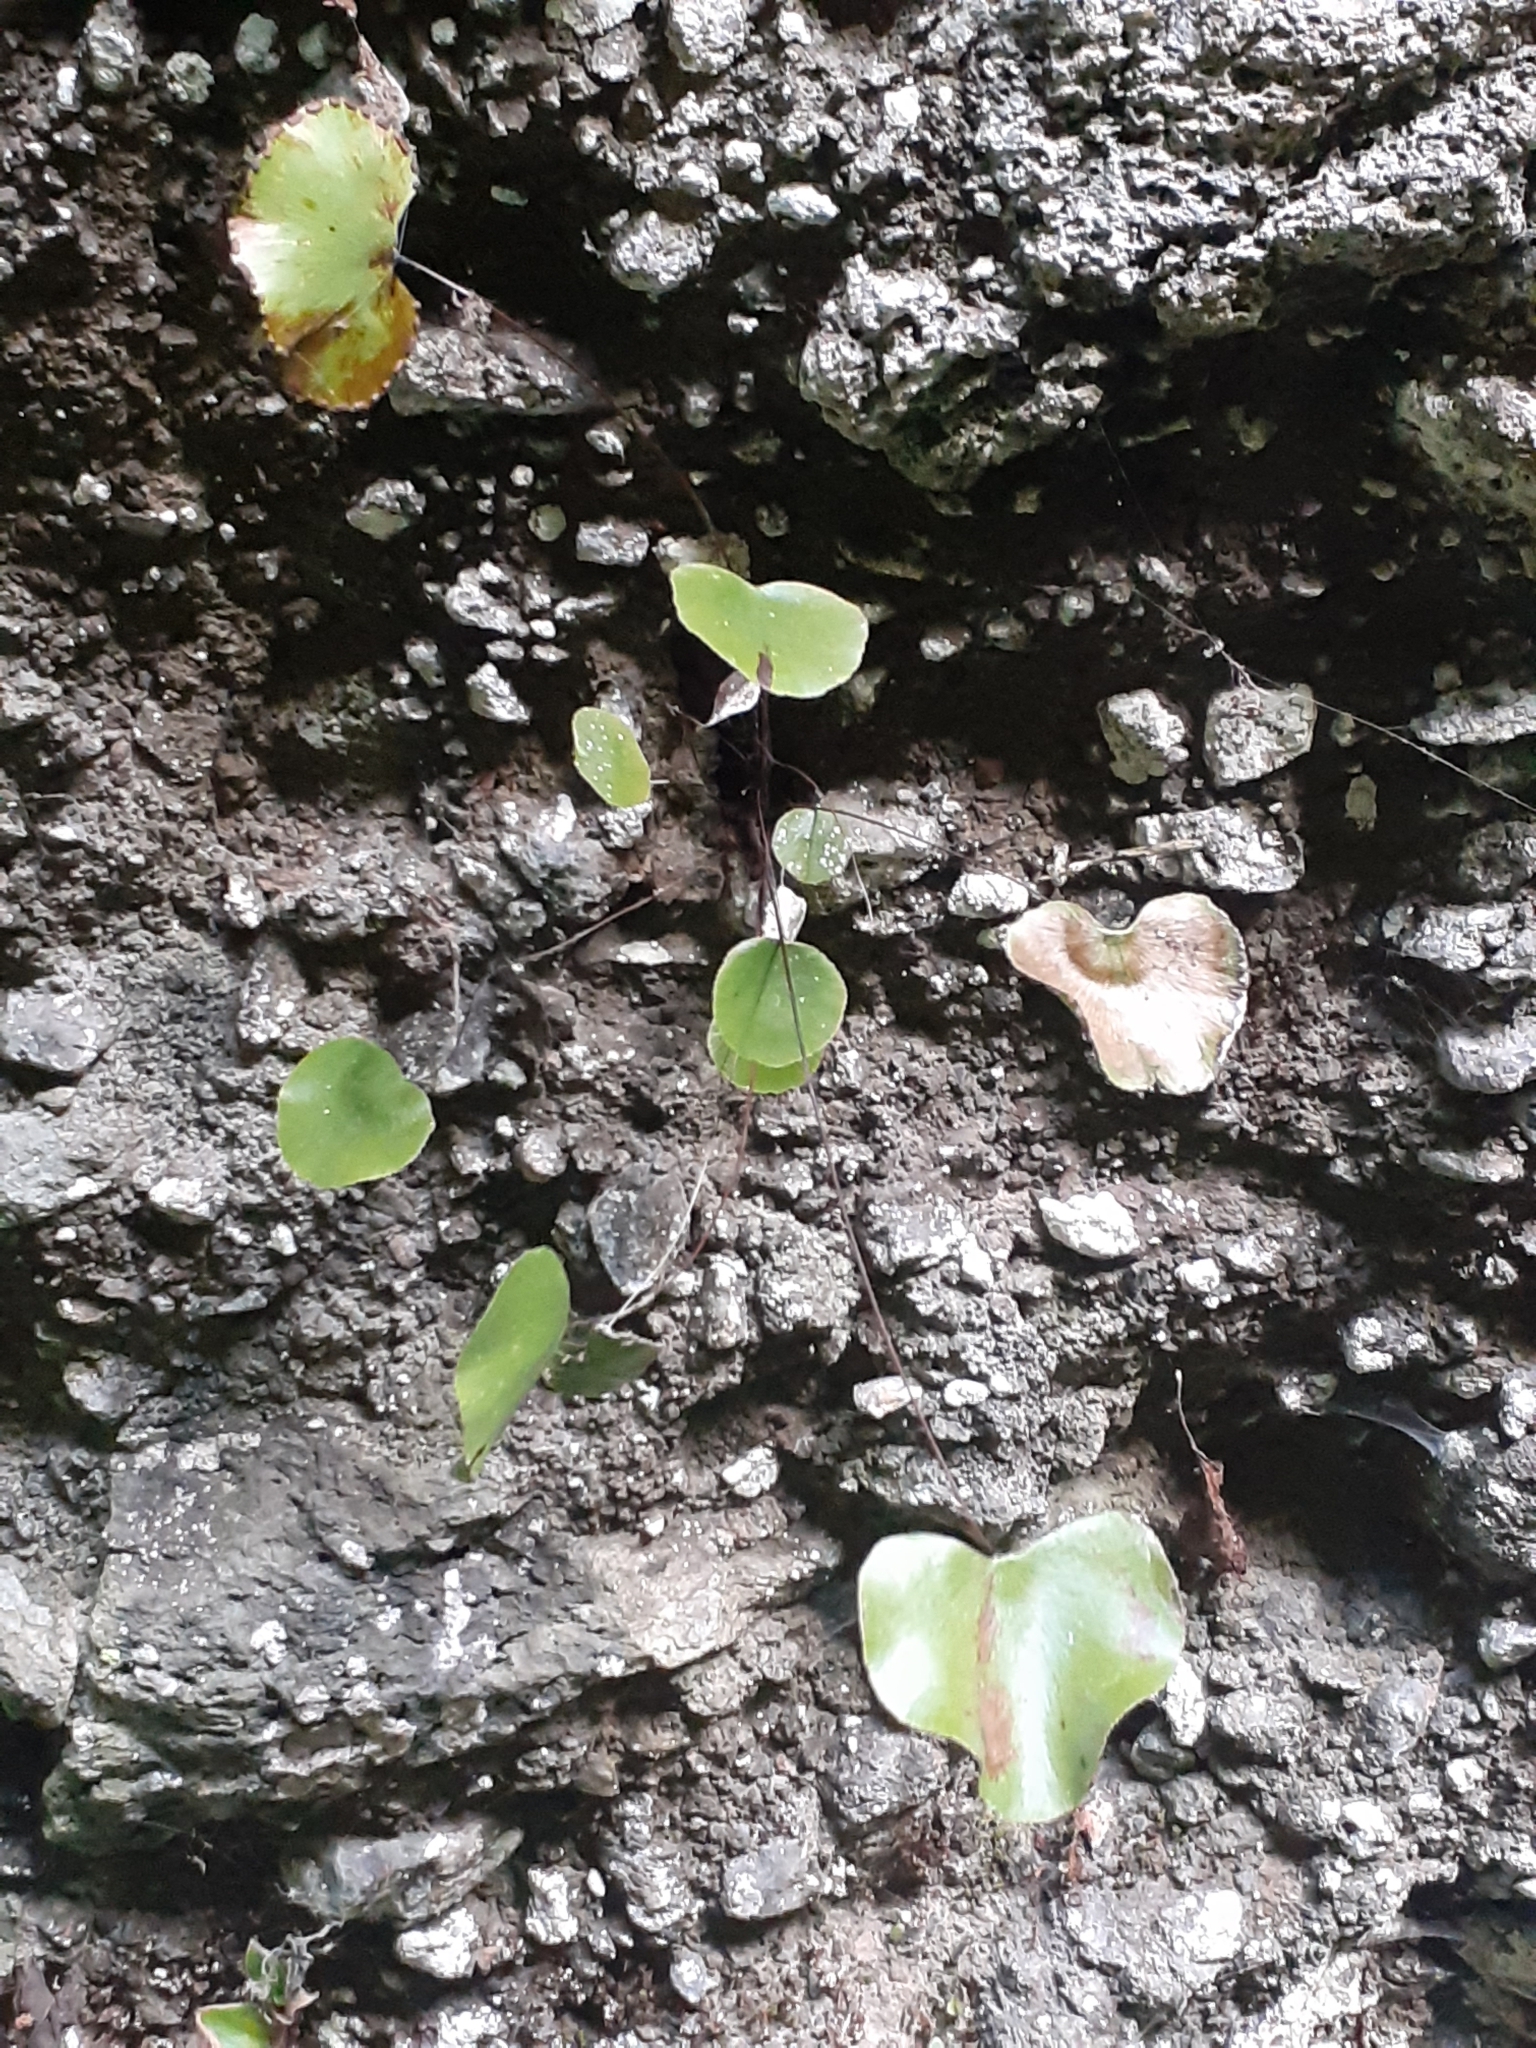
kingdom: Plantae
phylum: Tracheophyta
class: Polypodiopsida
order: Polypodiales
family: Pteridaceae
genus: Adiantum
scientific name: Adiantum reniforme
